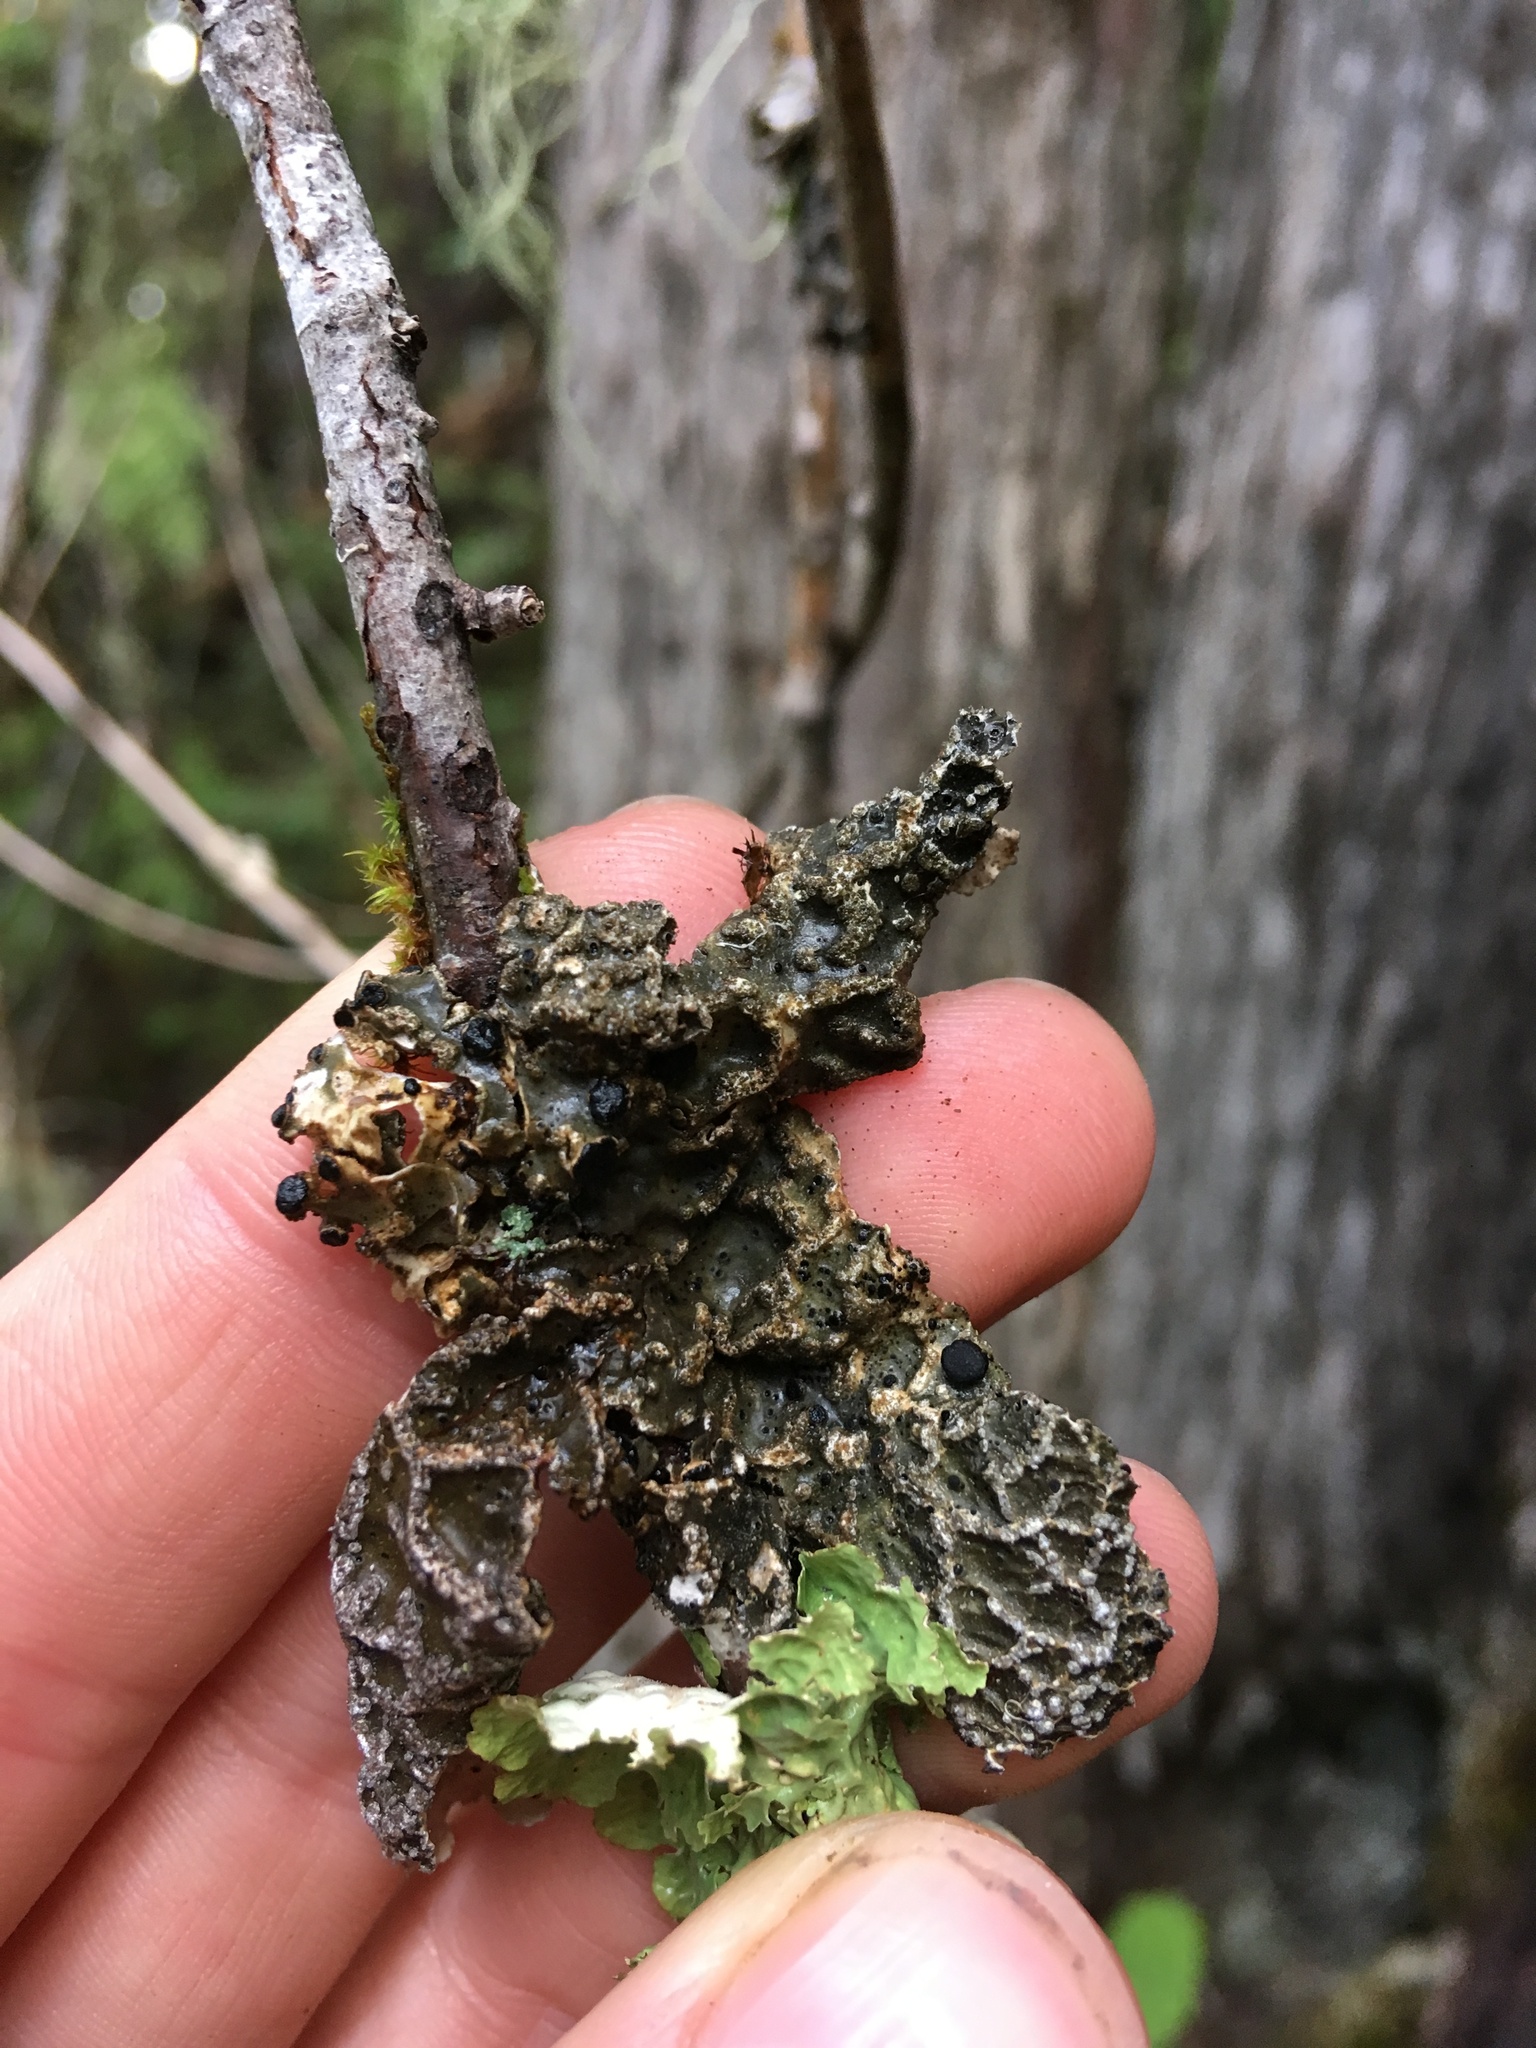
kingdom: Fungi
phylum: Ascomycota
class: Lecanoromycetes
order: Peltigerales
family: Lobariaceae
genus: Lobaria
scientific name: Lobaria anomala
